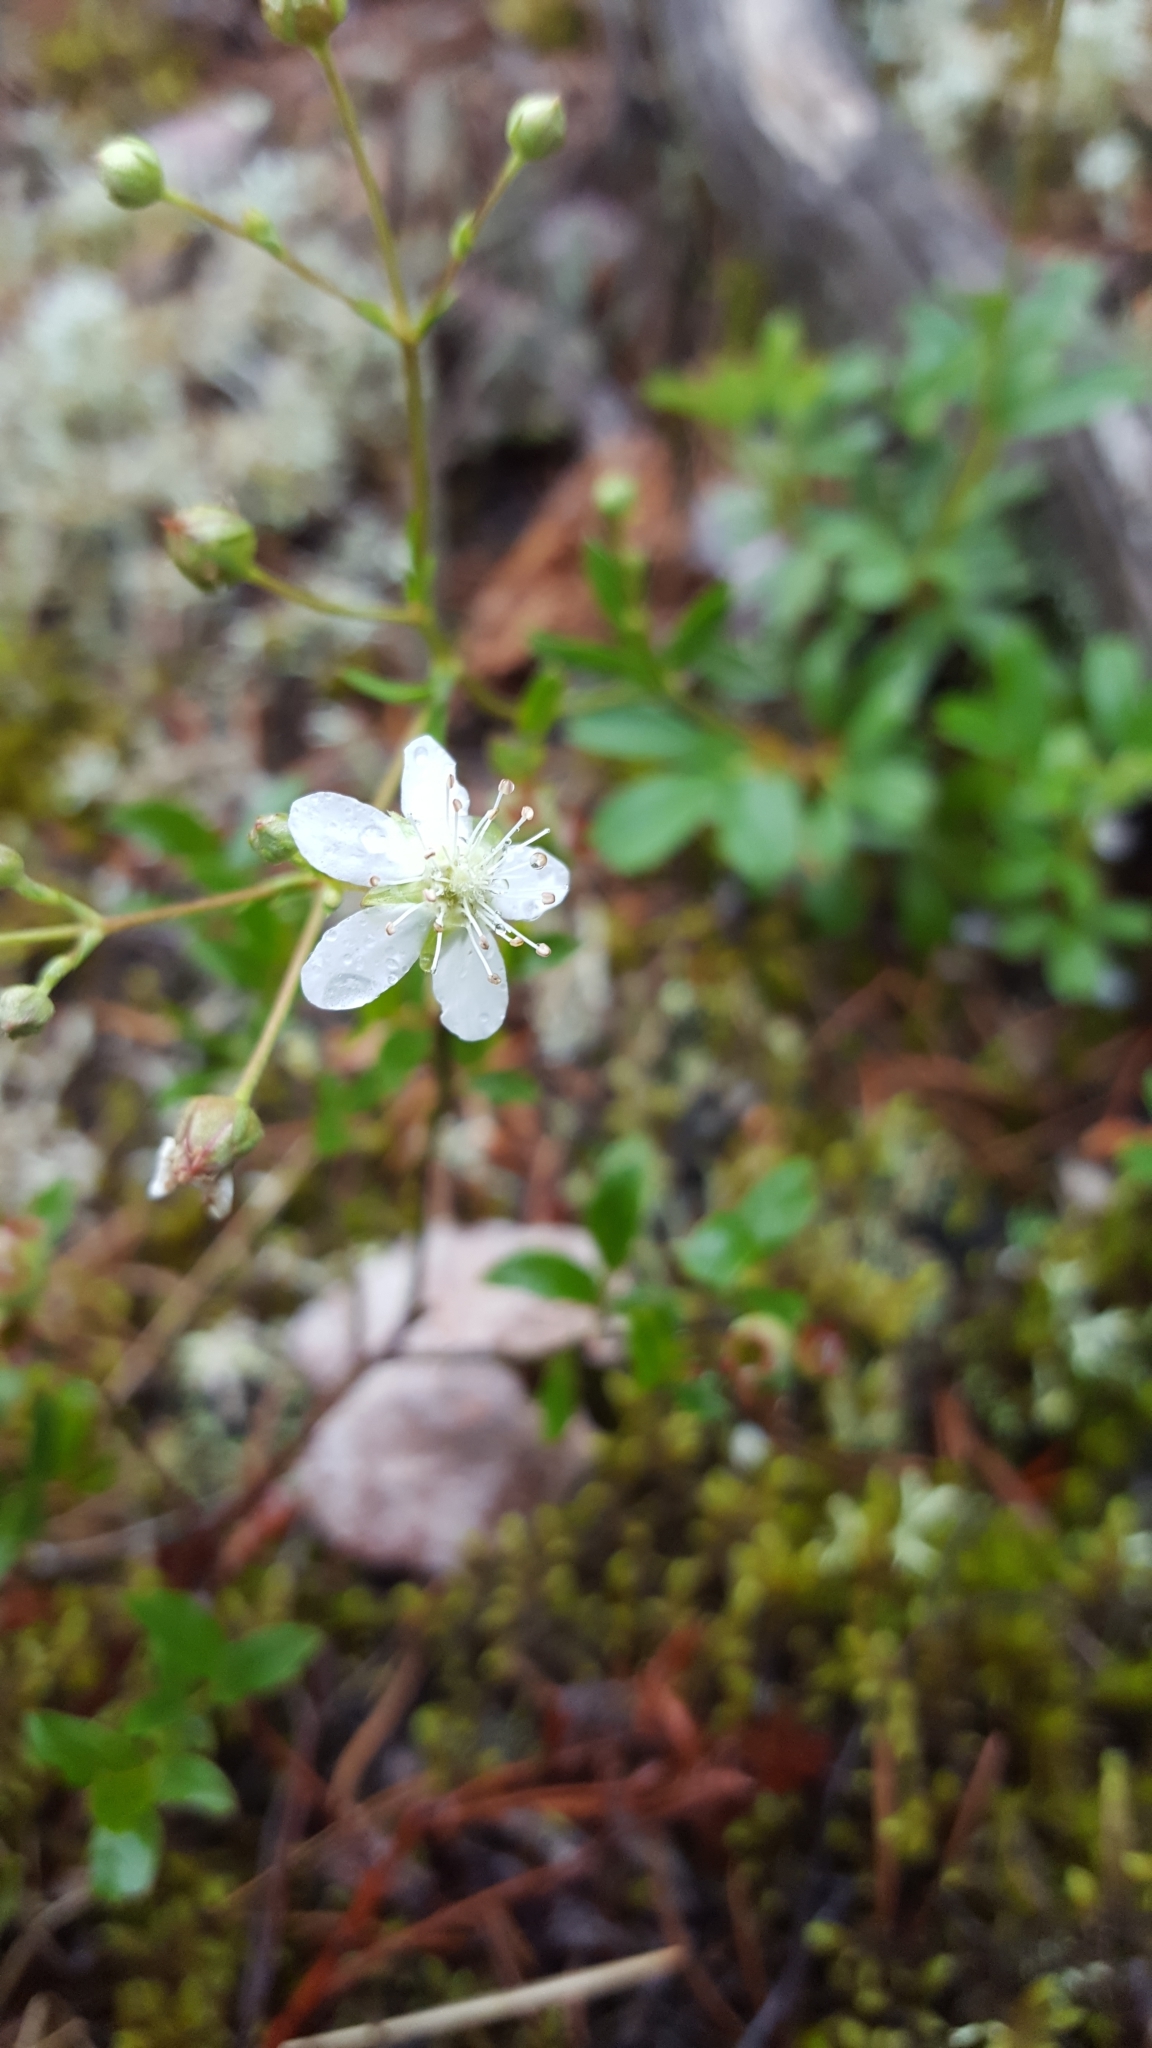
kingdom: Plantae
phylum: Tracheophyta
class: Magnoliopsida
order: Rosales
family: Rosaceae
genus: Sibbaldia
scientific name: Sibbaldia tridentata
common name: Three-toothed cinquefoil
